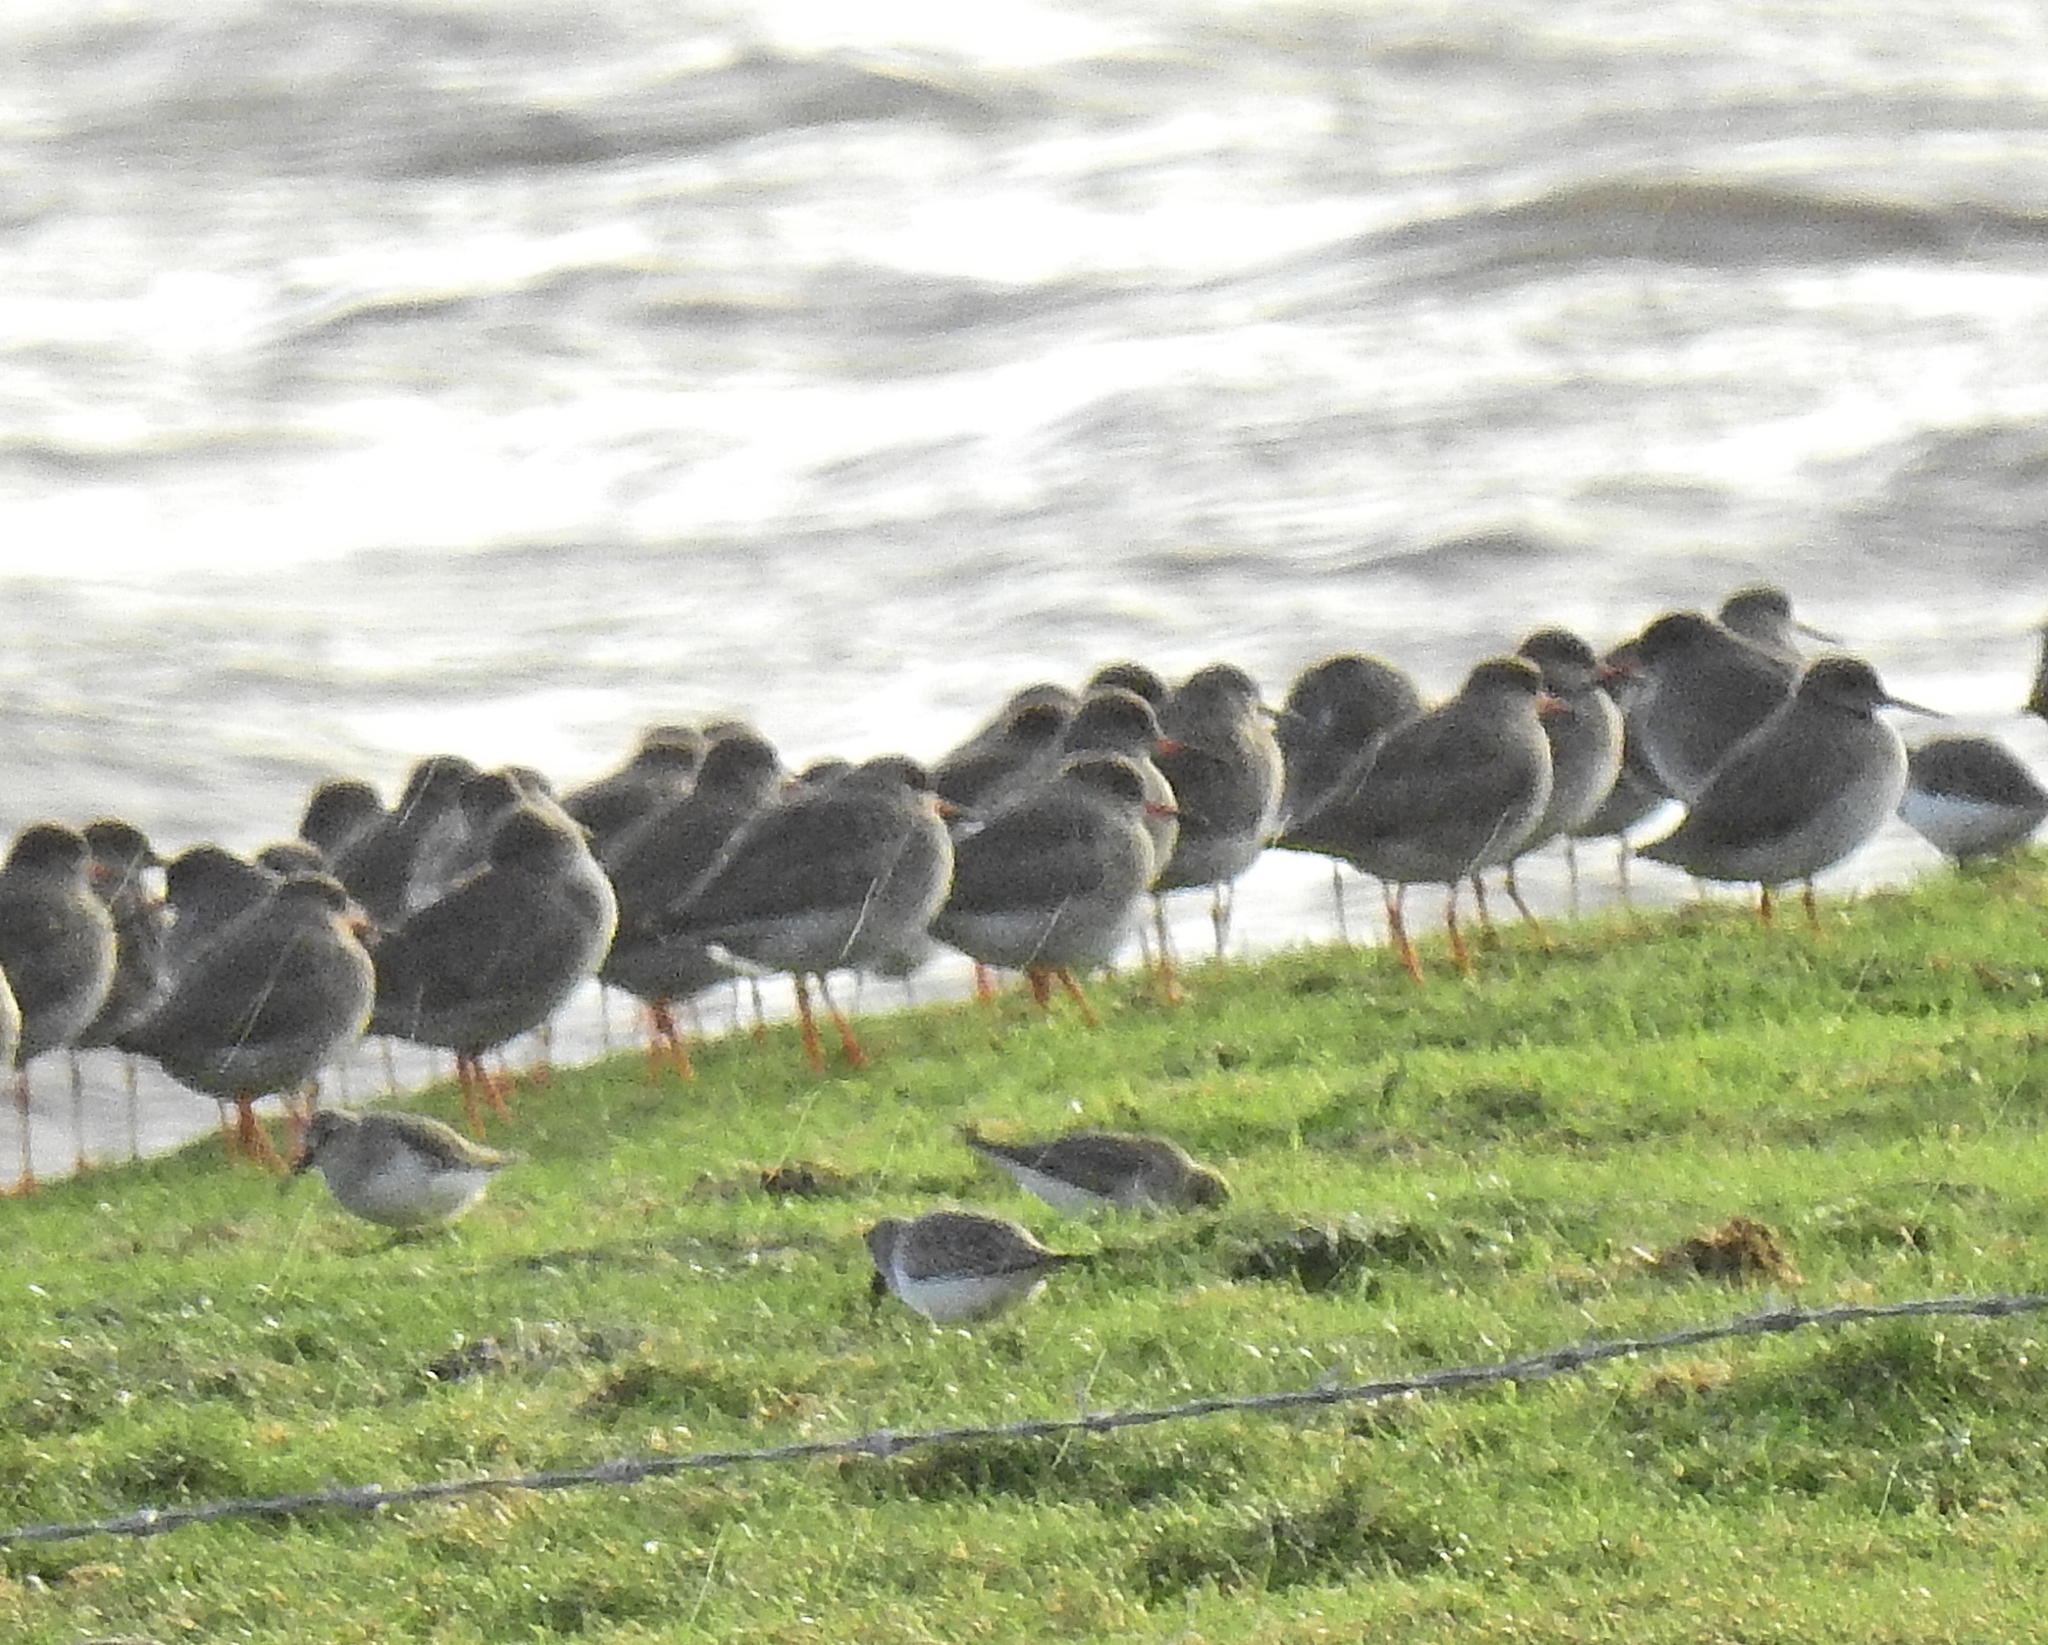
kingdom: Animalia
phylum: Chordata
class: Aves
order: Charadriiformes
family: Scolopacidae
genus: Tringa
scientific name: Tringa totanus
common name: Common redshank
